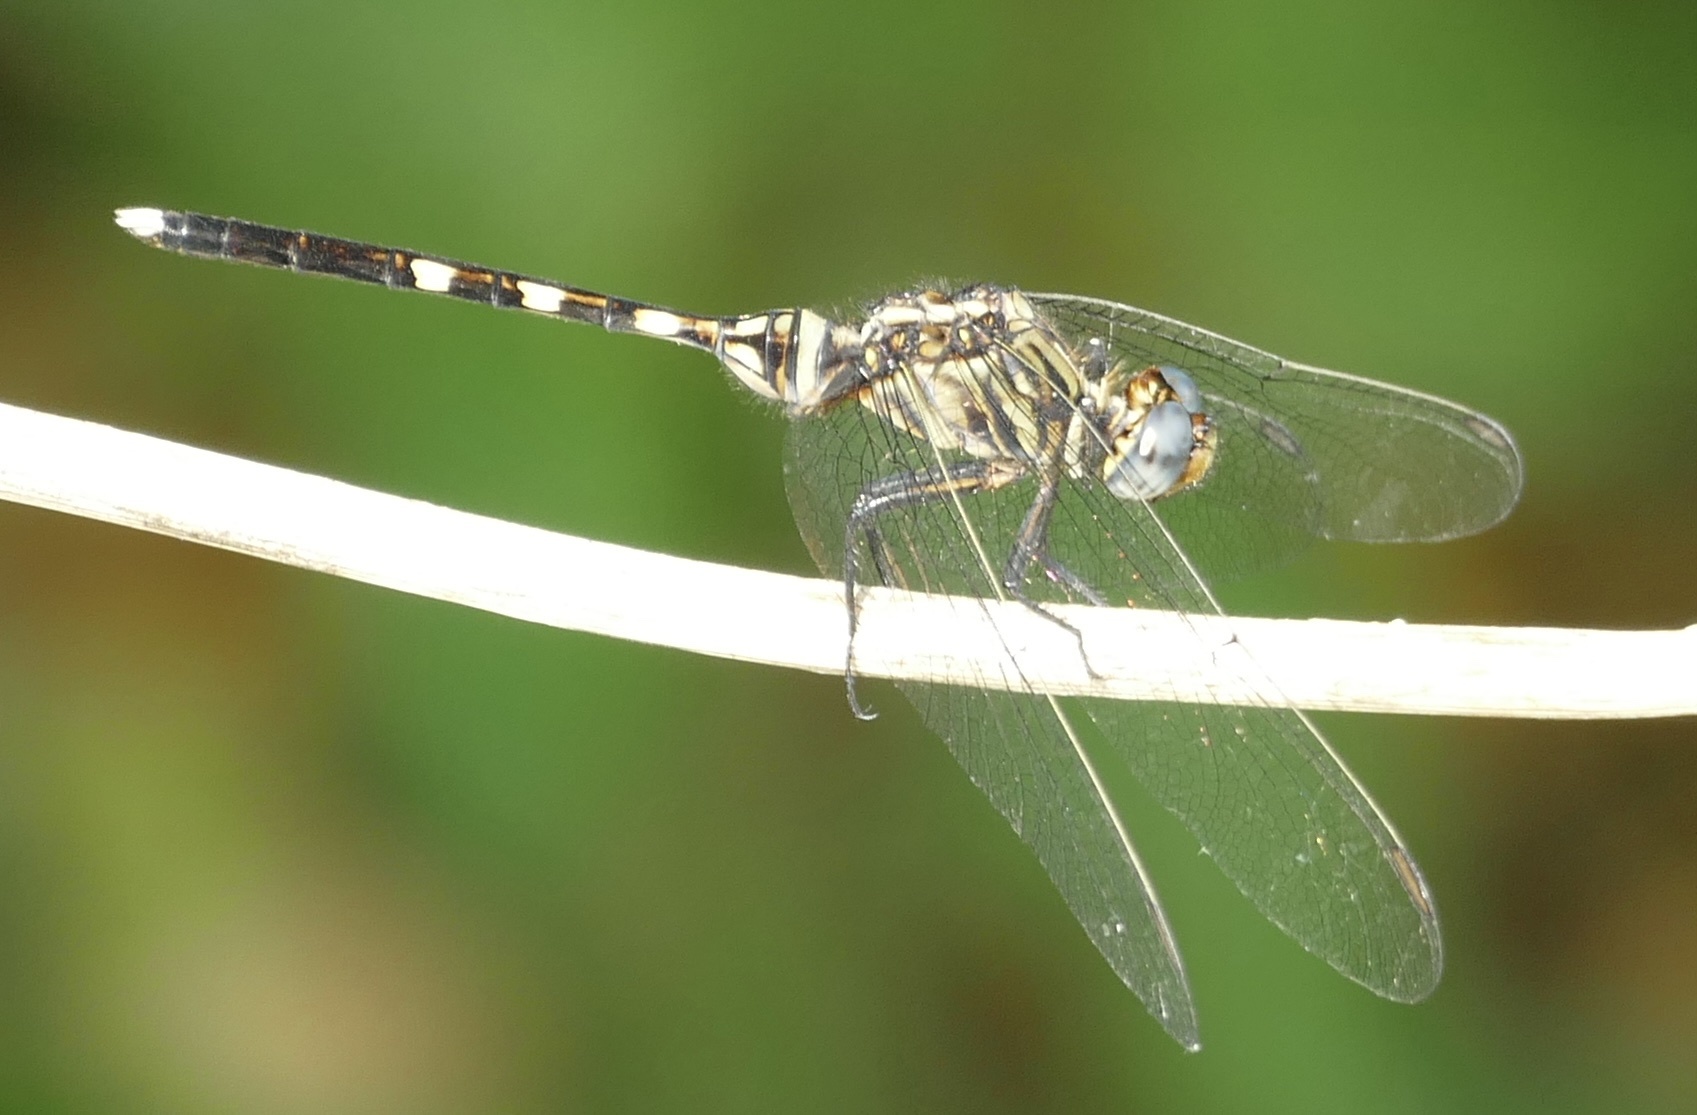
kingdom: Animalia
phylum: Arthropoda
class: Insecta
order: Odonata
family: Libellulidae
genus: Orthetrum
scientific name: Orthetrum stemmale
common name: Bold skimmer
